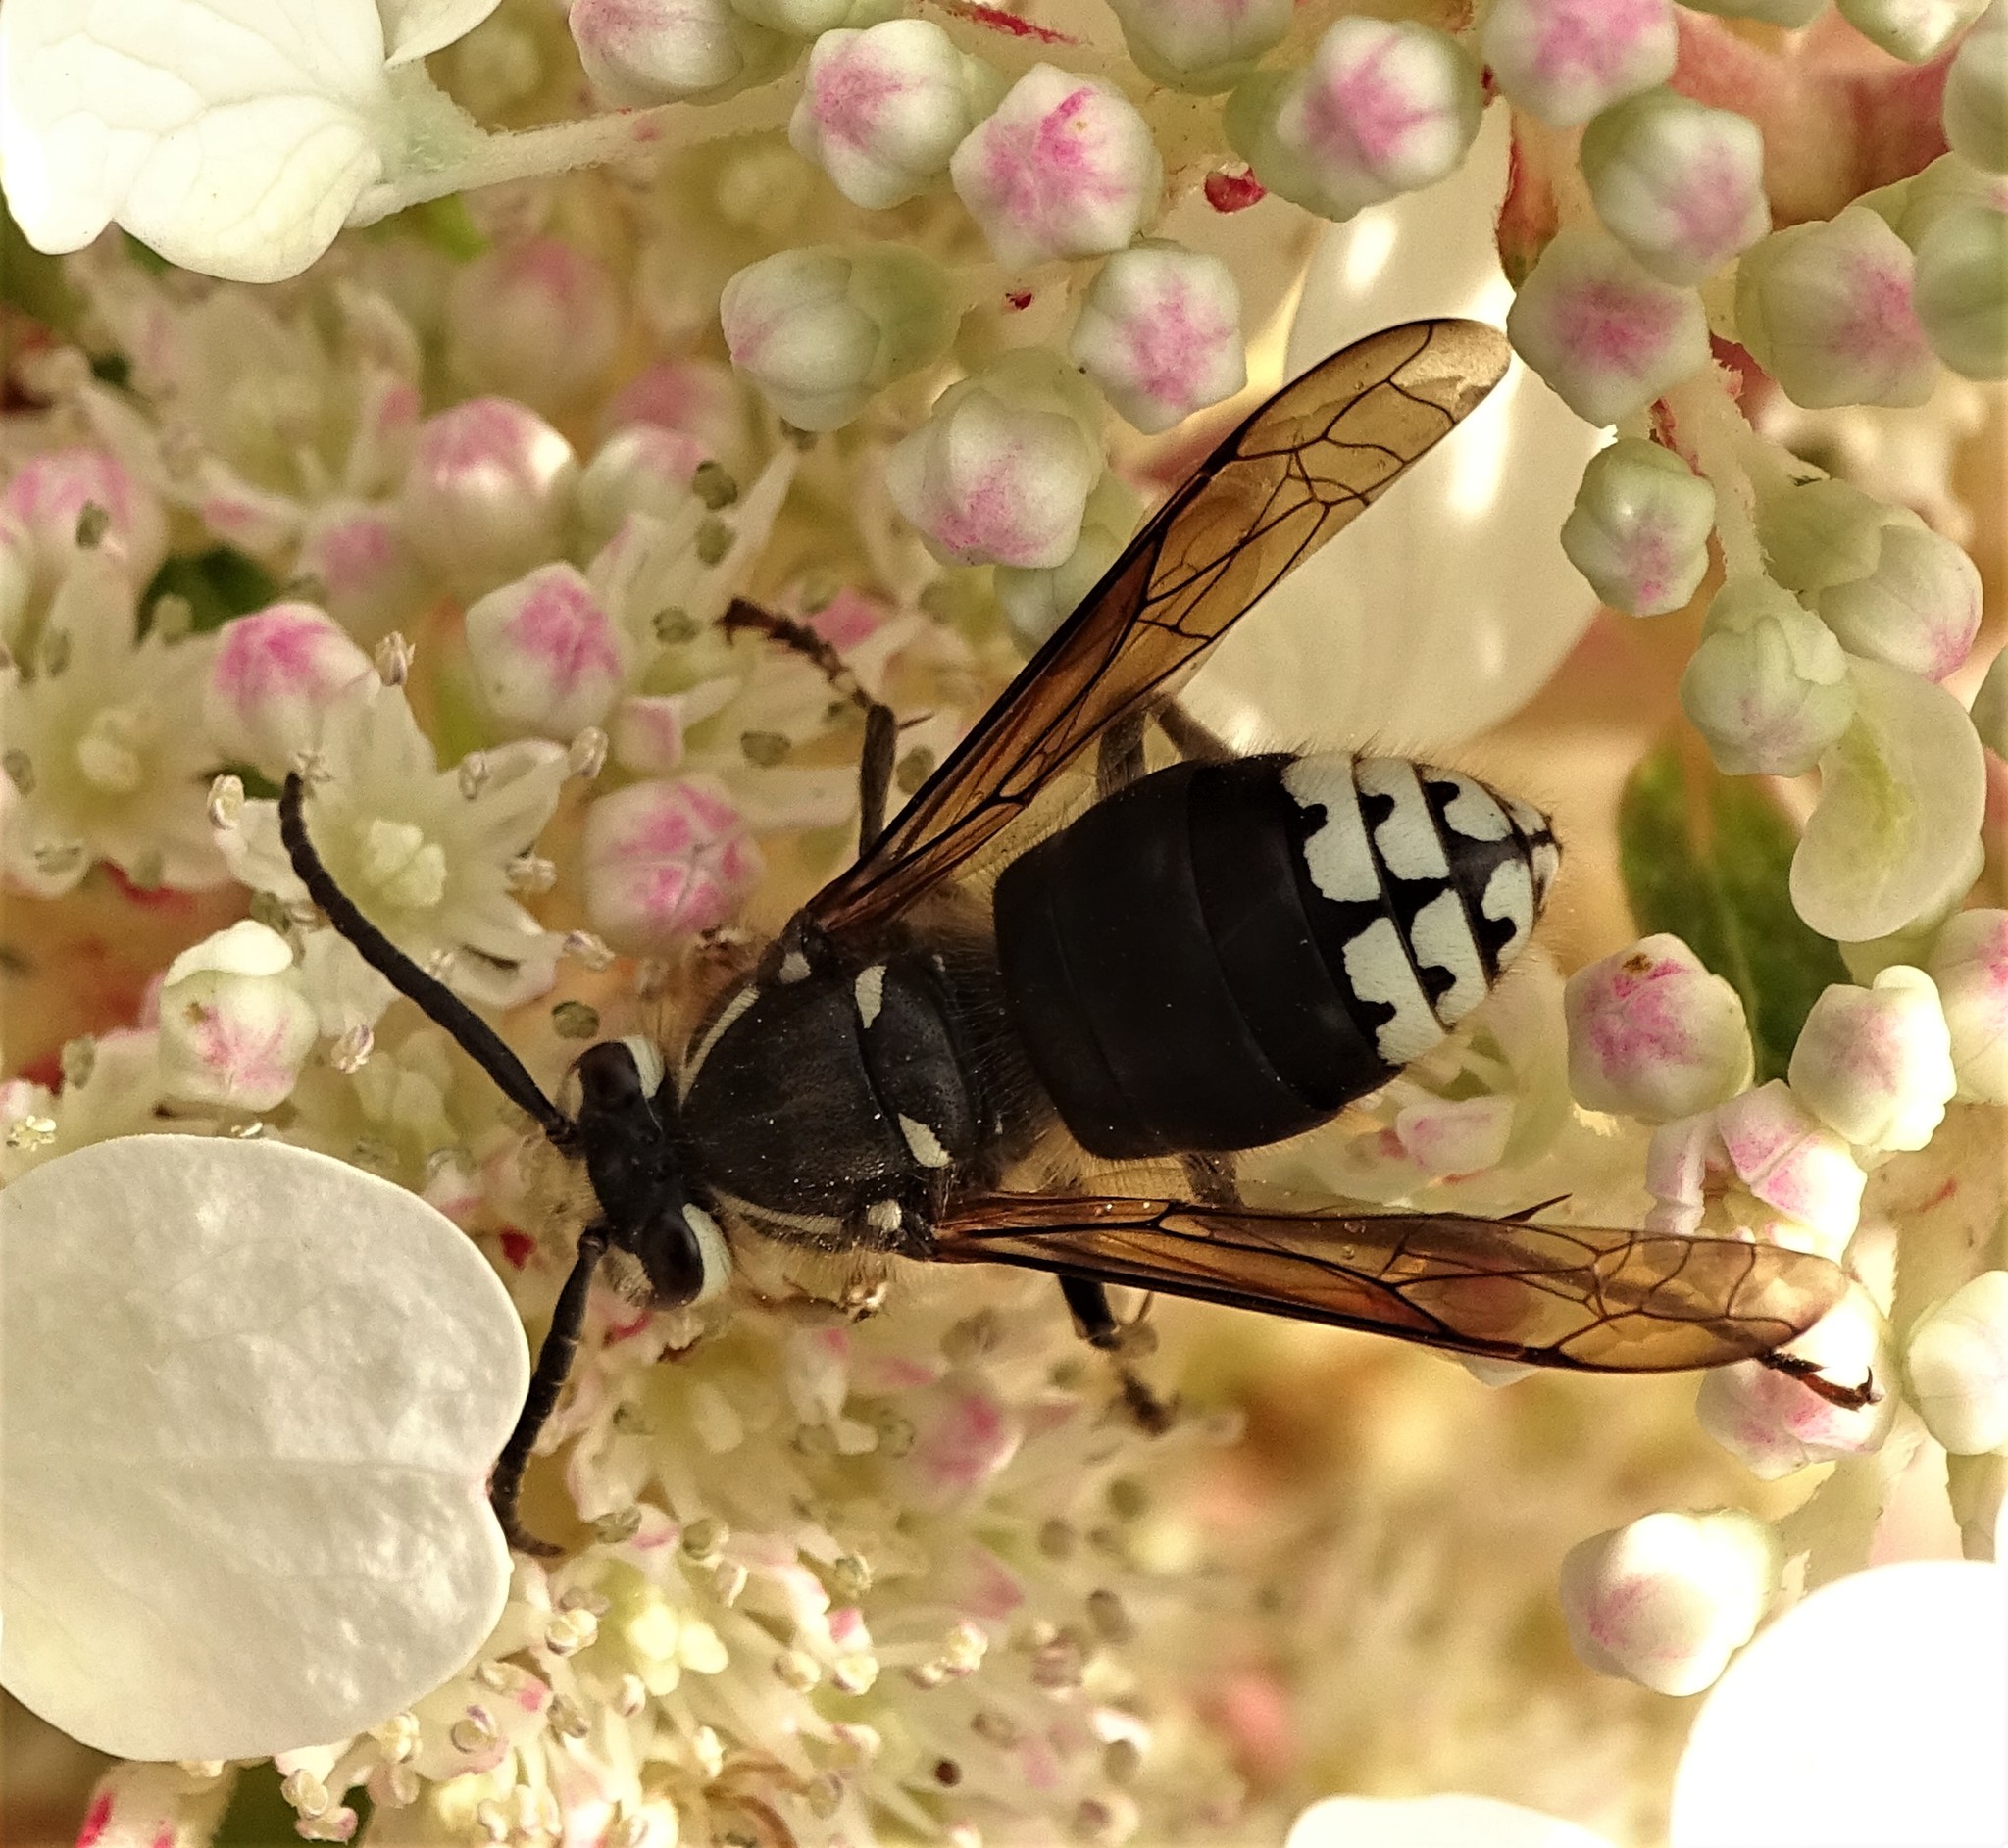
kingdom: Animalia
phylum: Arthropoda
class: Insecta
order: Hymenoptera
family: Vespidae
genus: Dolichovespula
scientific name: Dolichovespula maculata
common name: Bald-faced hornet
